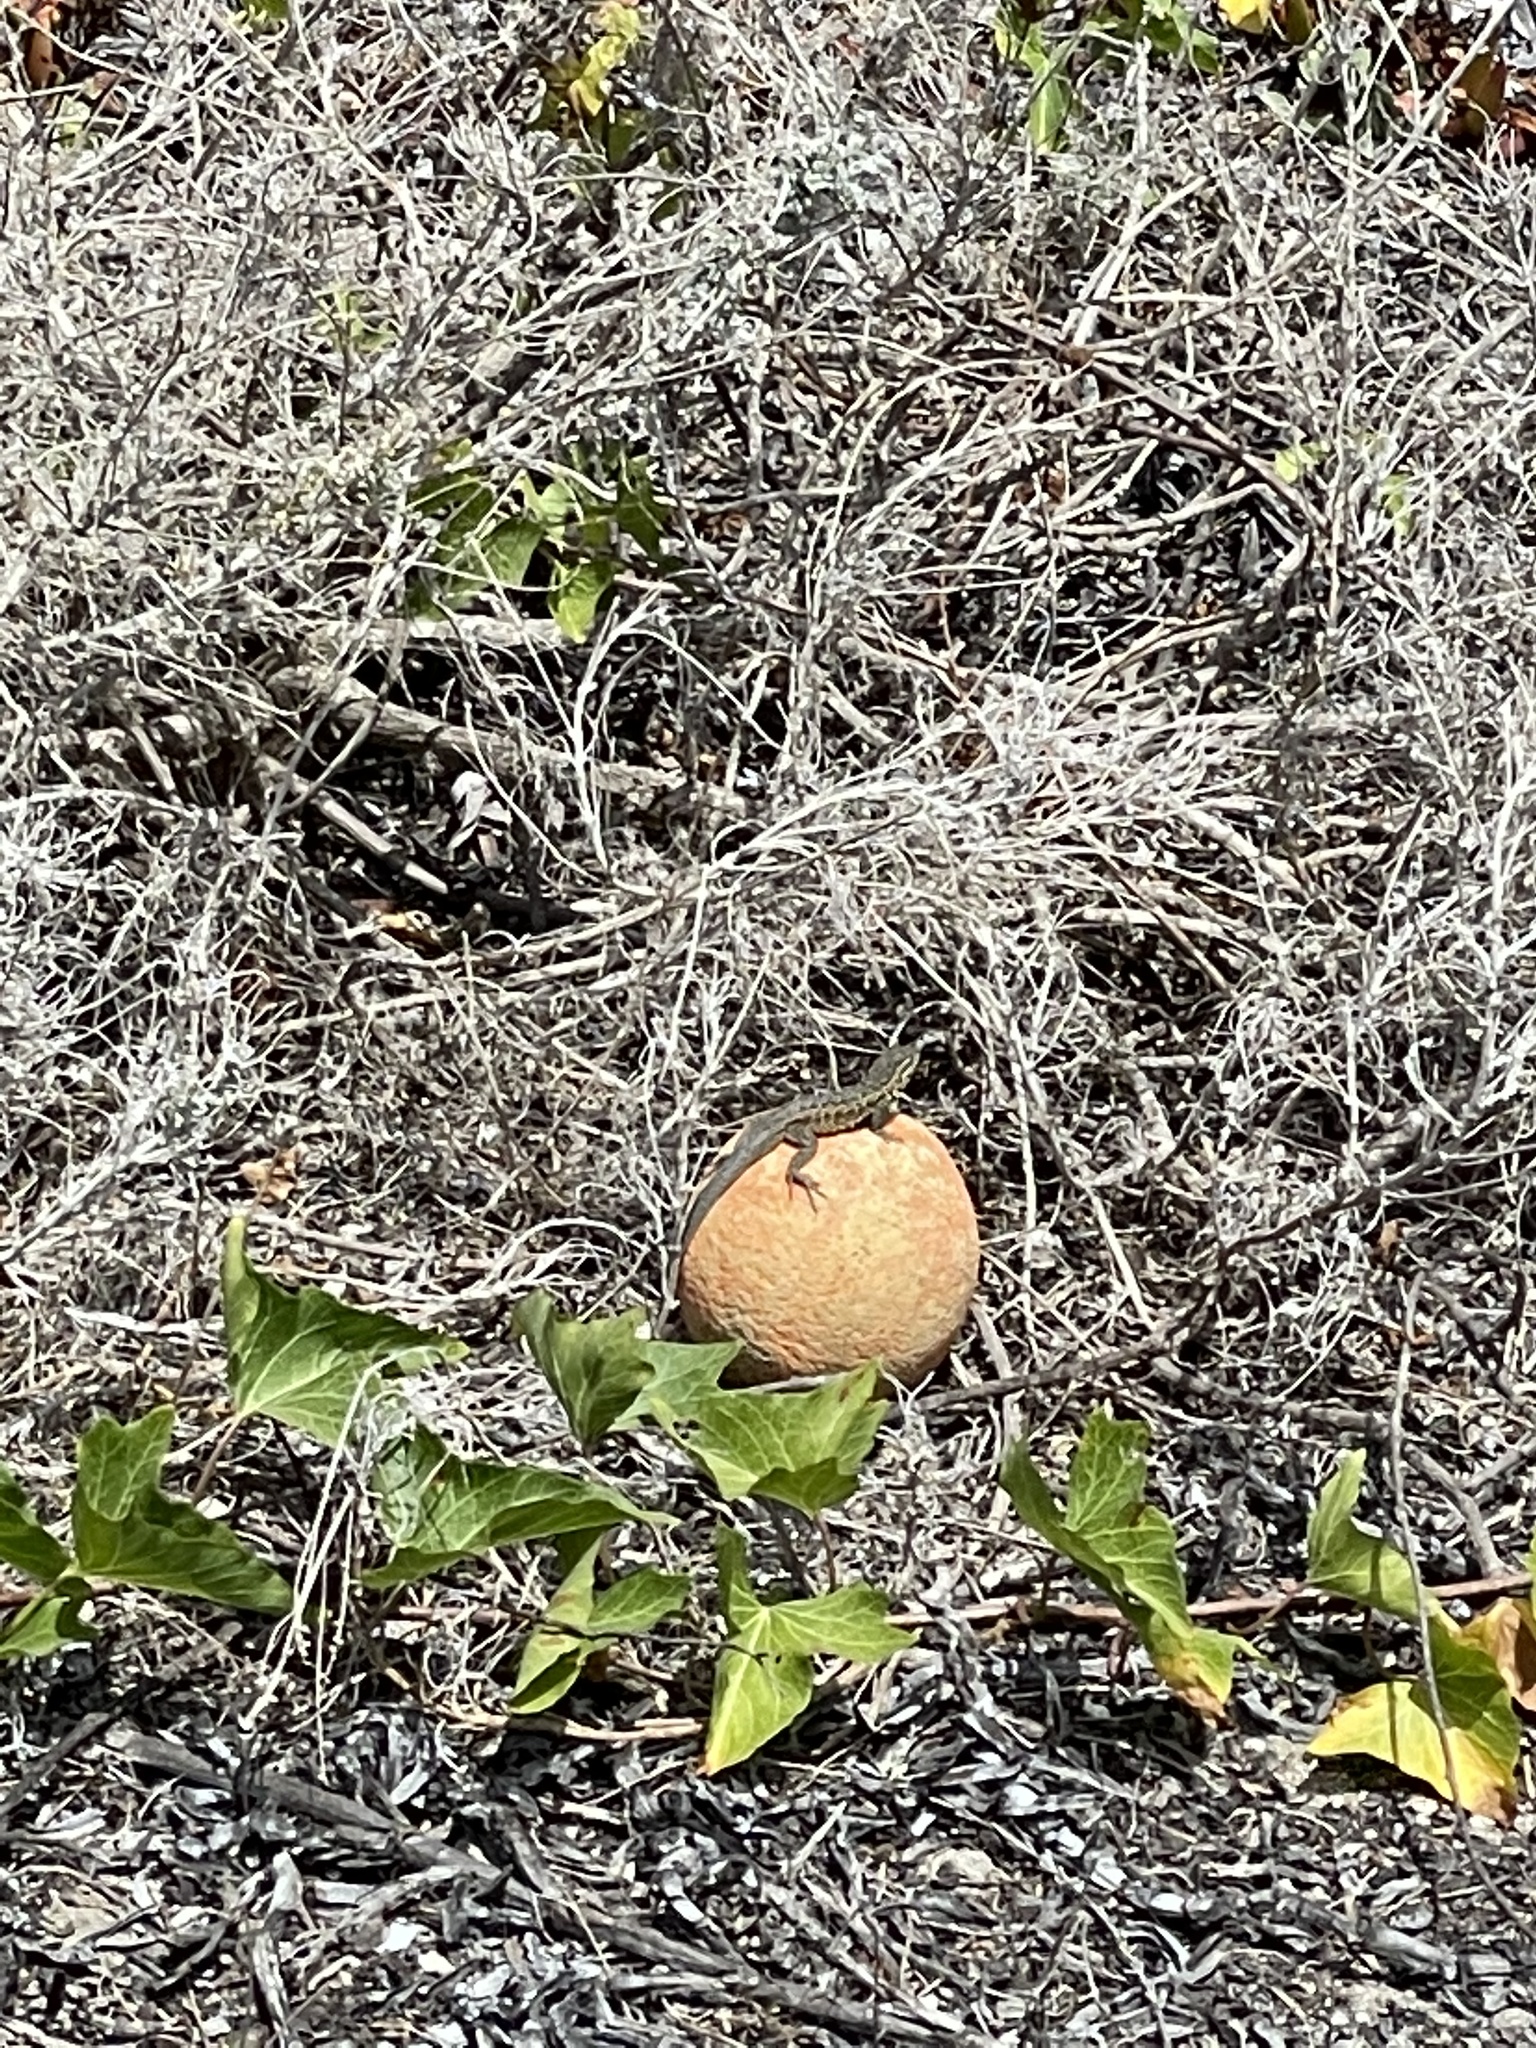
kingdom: Animalia
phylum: Chordata
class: Squamata
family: Phrynosomatidae
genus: Uta
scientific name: Uta stansburiana
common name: Side-blotched lizard
